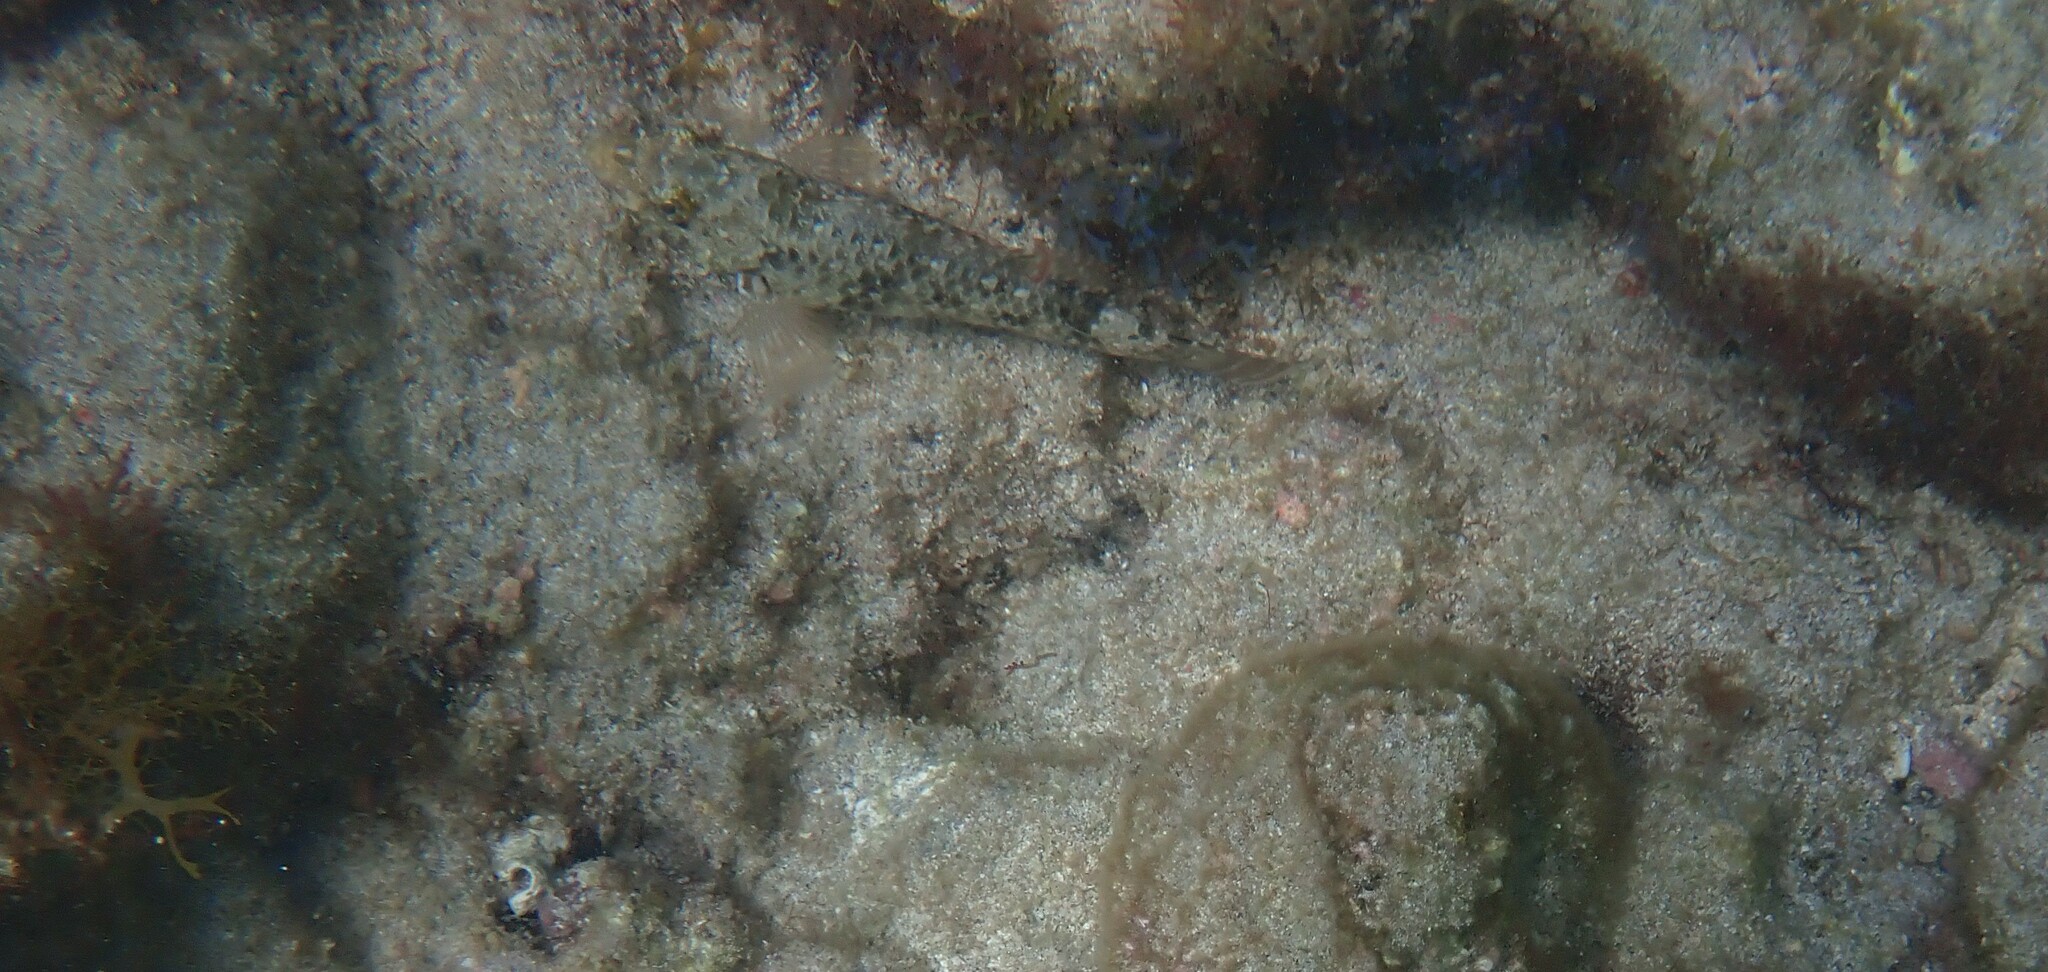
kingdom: Animalia
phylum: Chordata
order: Perciformes
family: Scaridae
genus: Sparisoma
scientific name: Sparisoma cretense
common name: Parrotfish
